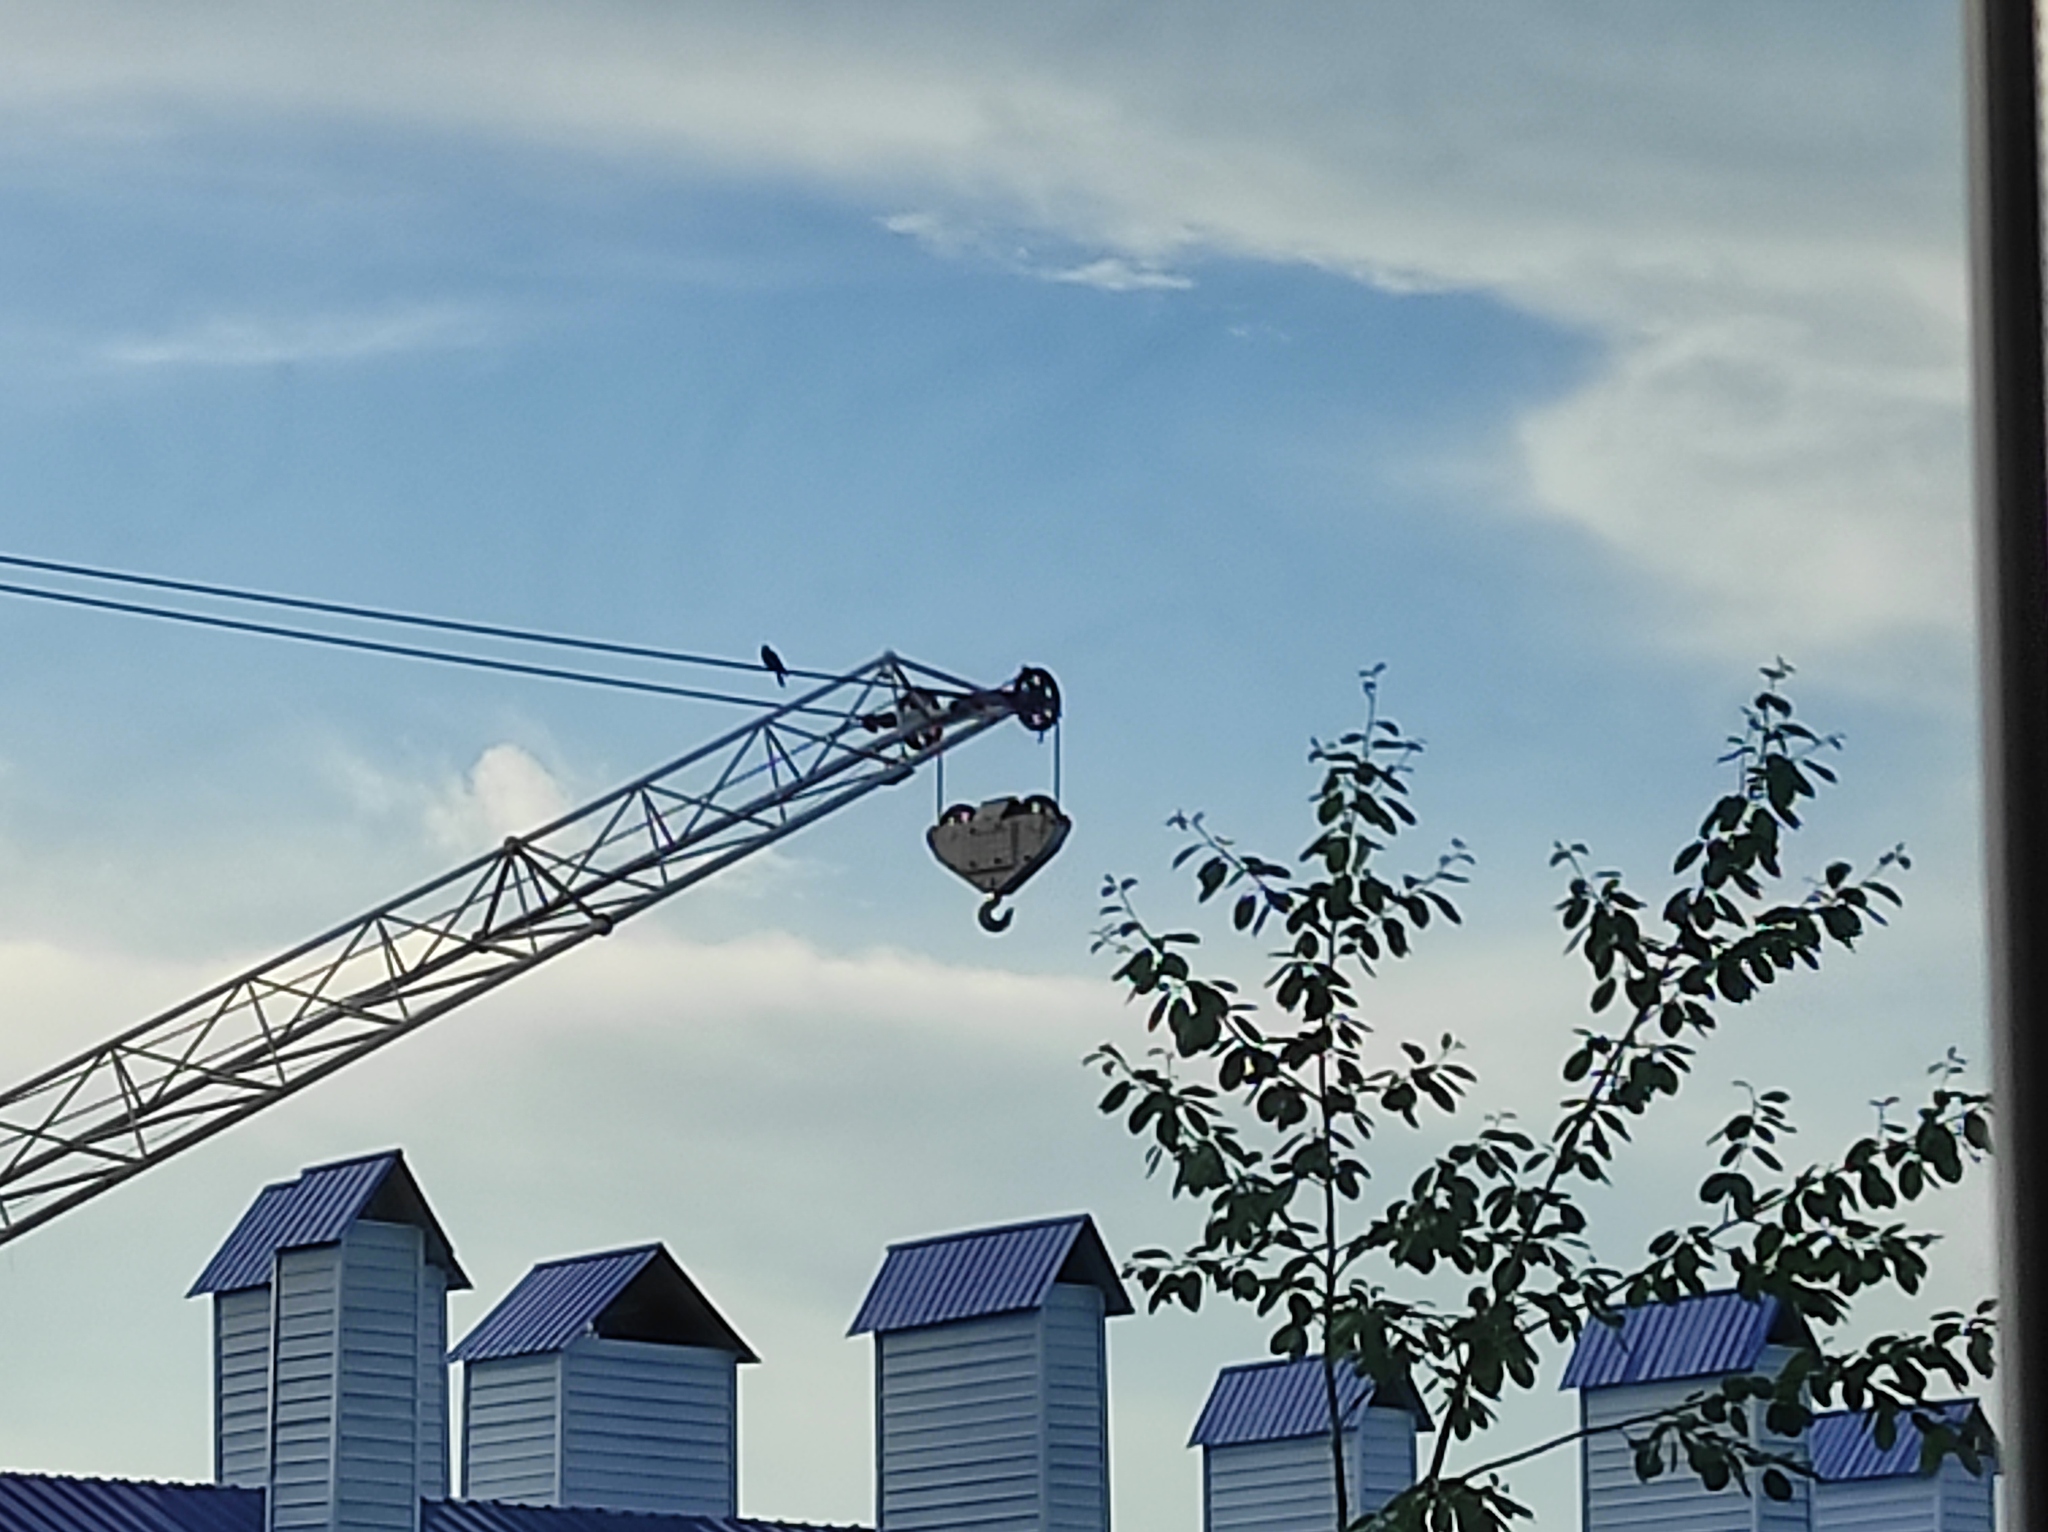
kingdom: Plantae
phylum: Tracheophyta
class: Magnoliopsida
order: Malpighiales
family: Salicaceae
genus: Populus
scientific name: Populus suaveolens
